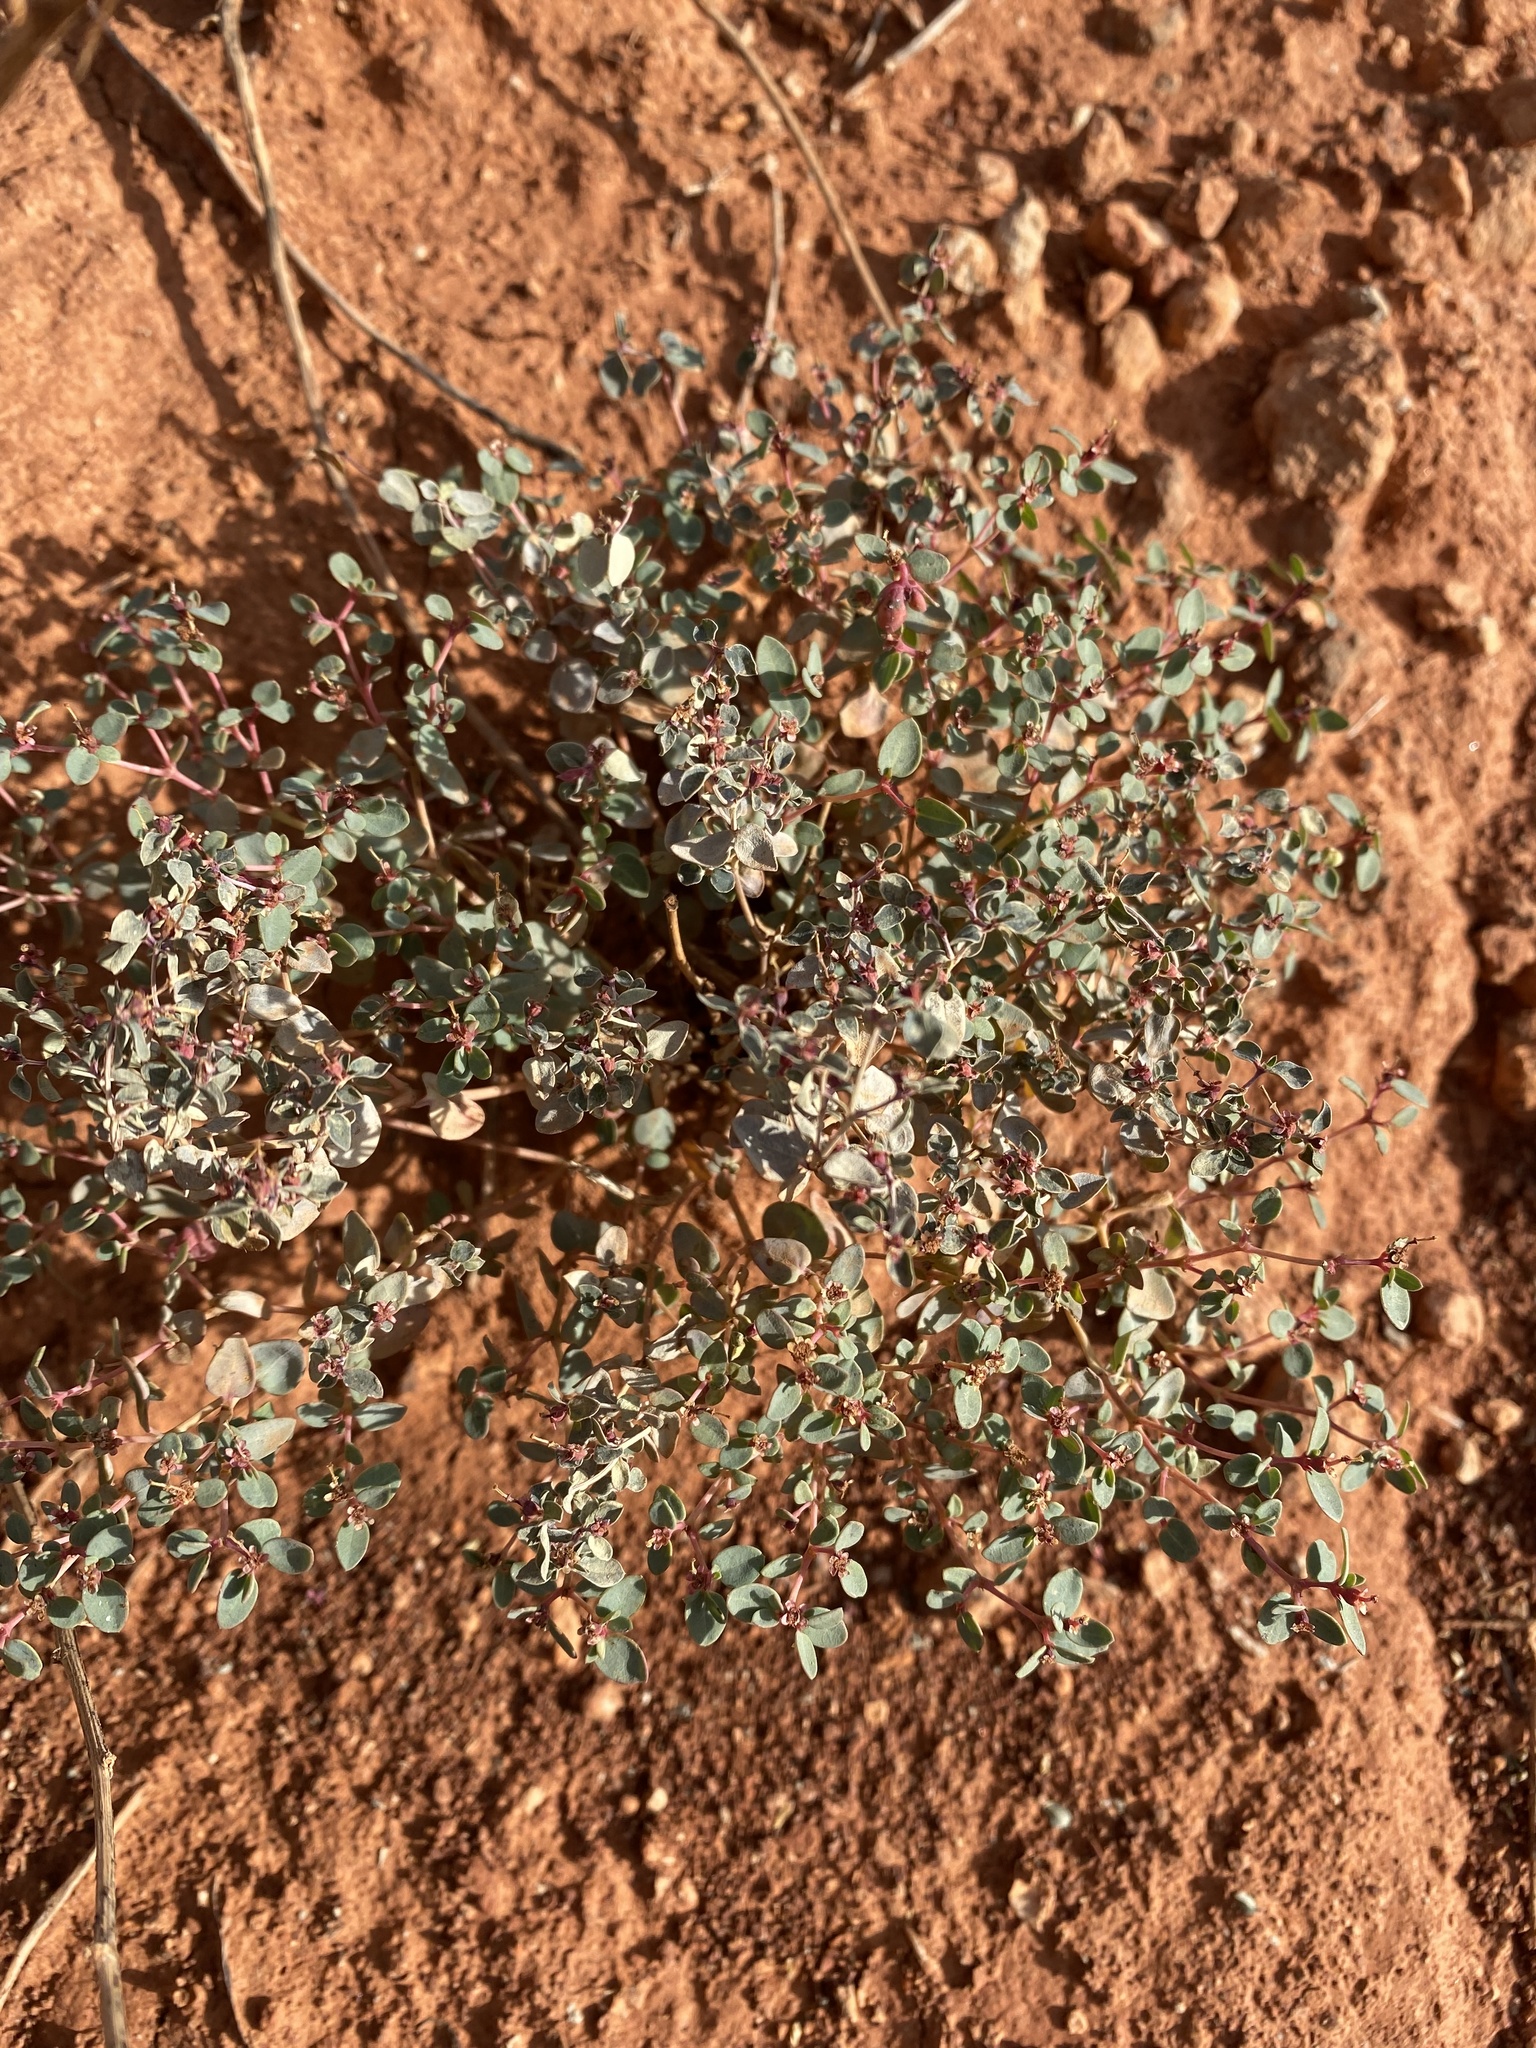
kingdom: Plantae
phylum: Tracheophyta
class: Magnoliopsida
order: Malpighiales
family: Euphorbiaceae
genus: Euphorbia
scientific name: Euphorbia fendleri
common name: Fendler's euphorbia
